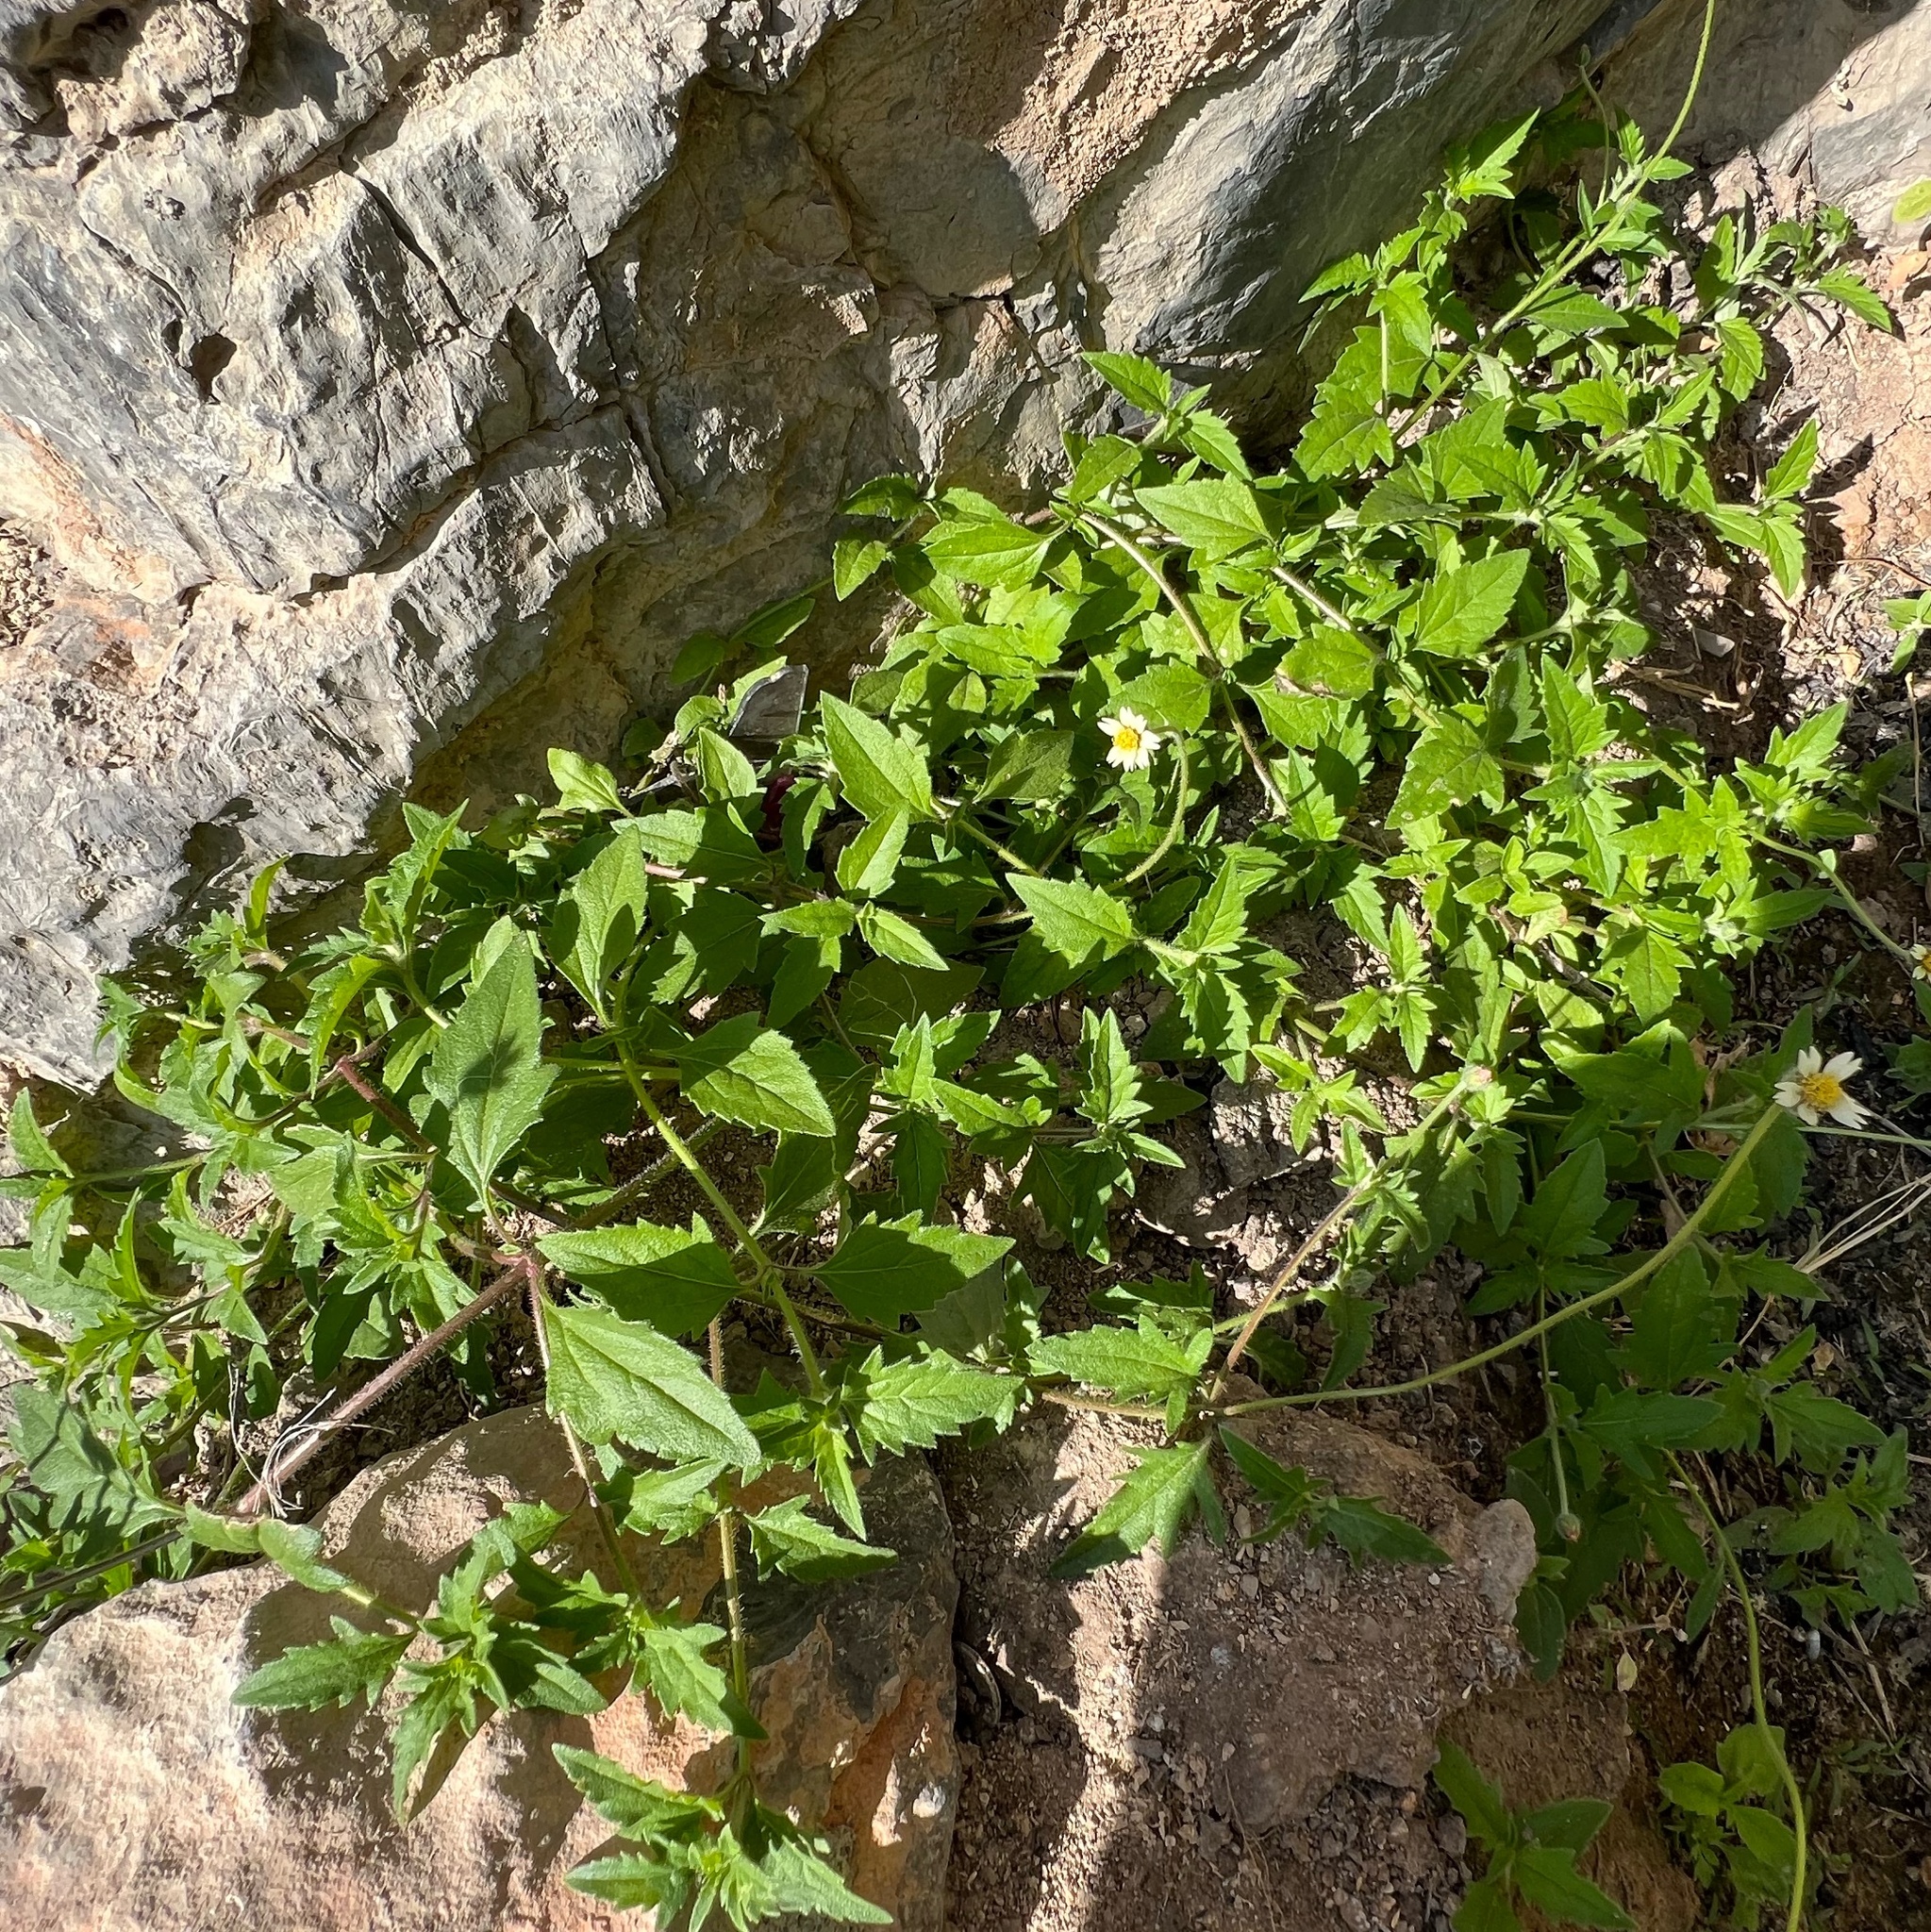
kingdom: Plantae
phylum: Tracheophyta
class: Magnoliopsida
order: Asterales
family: Asteraceae
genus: Tridax
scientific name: Tridax procumbens
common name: Coatbuttons
